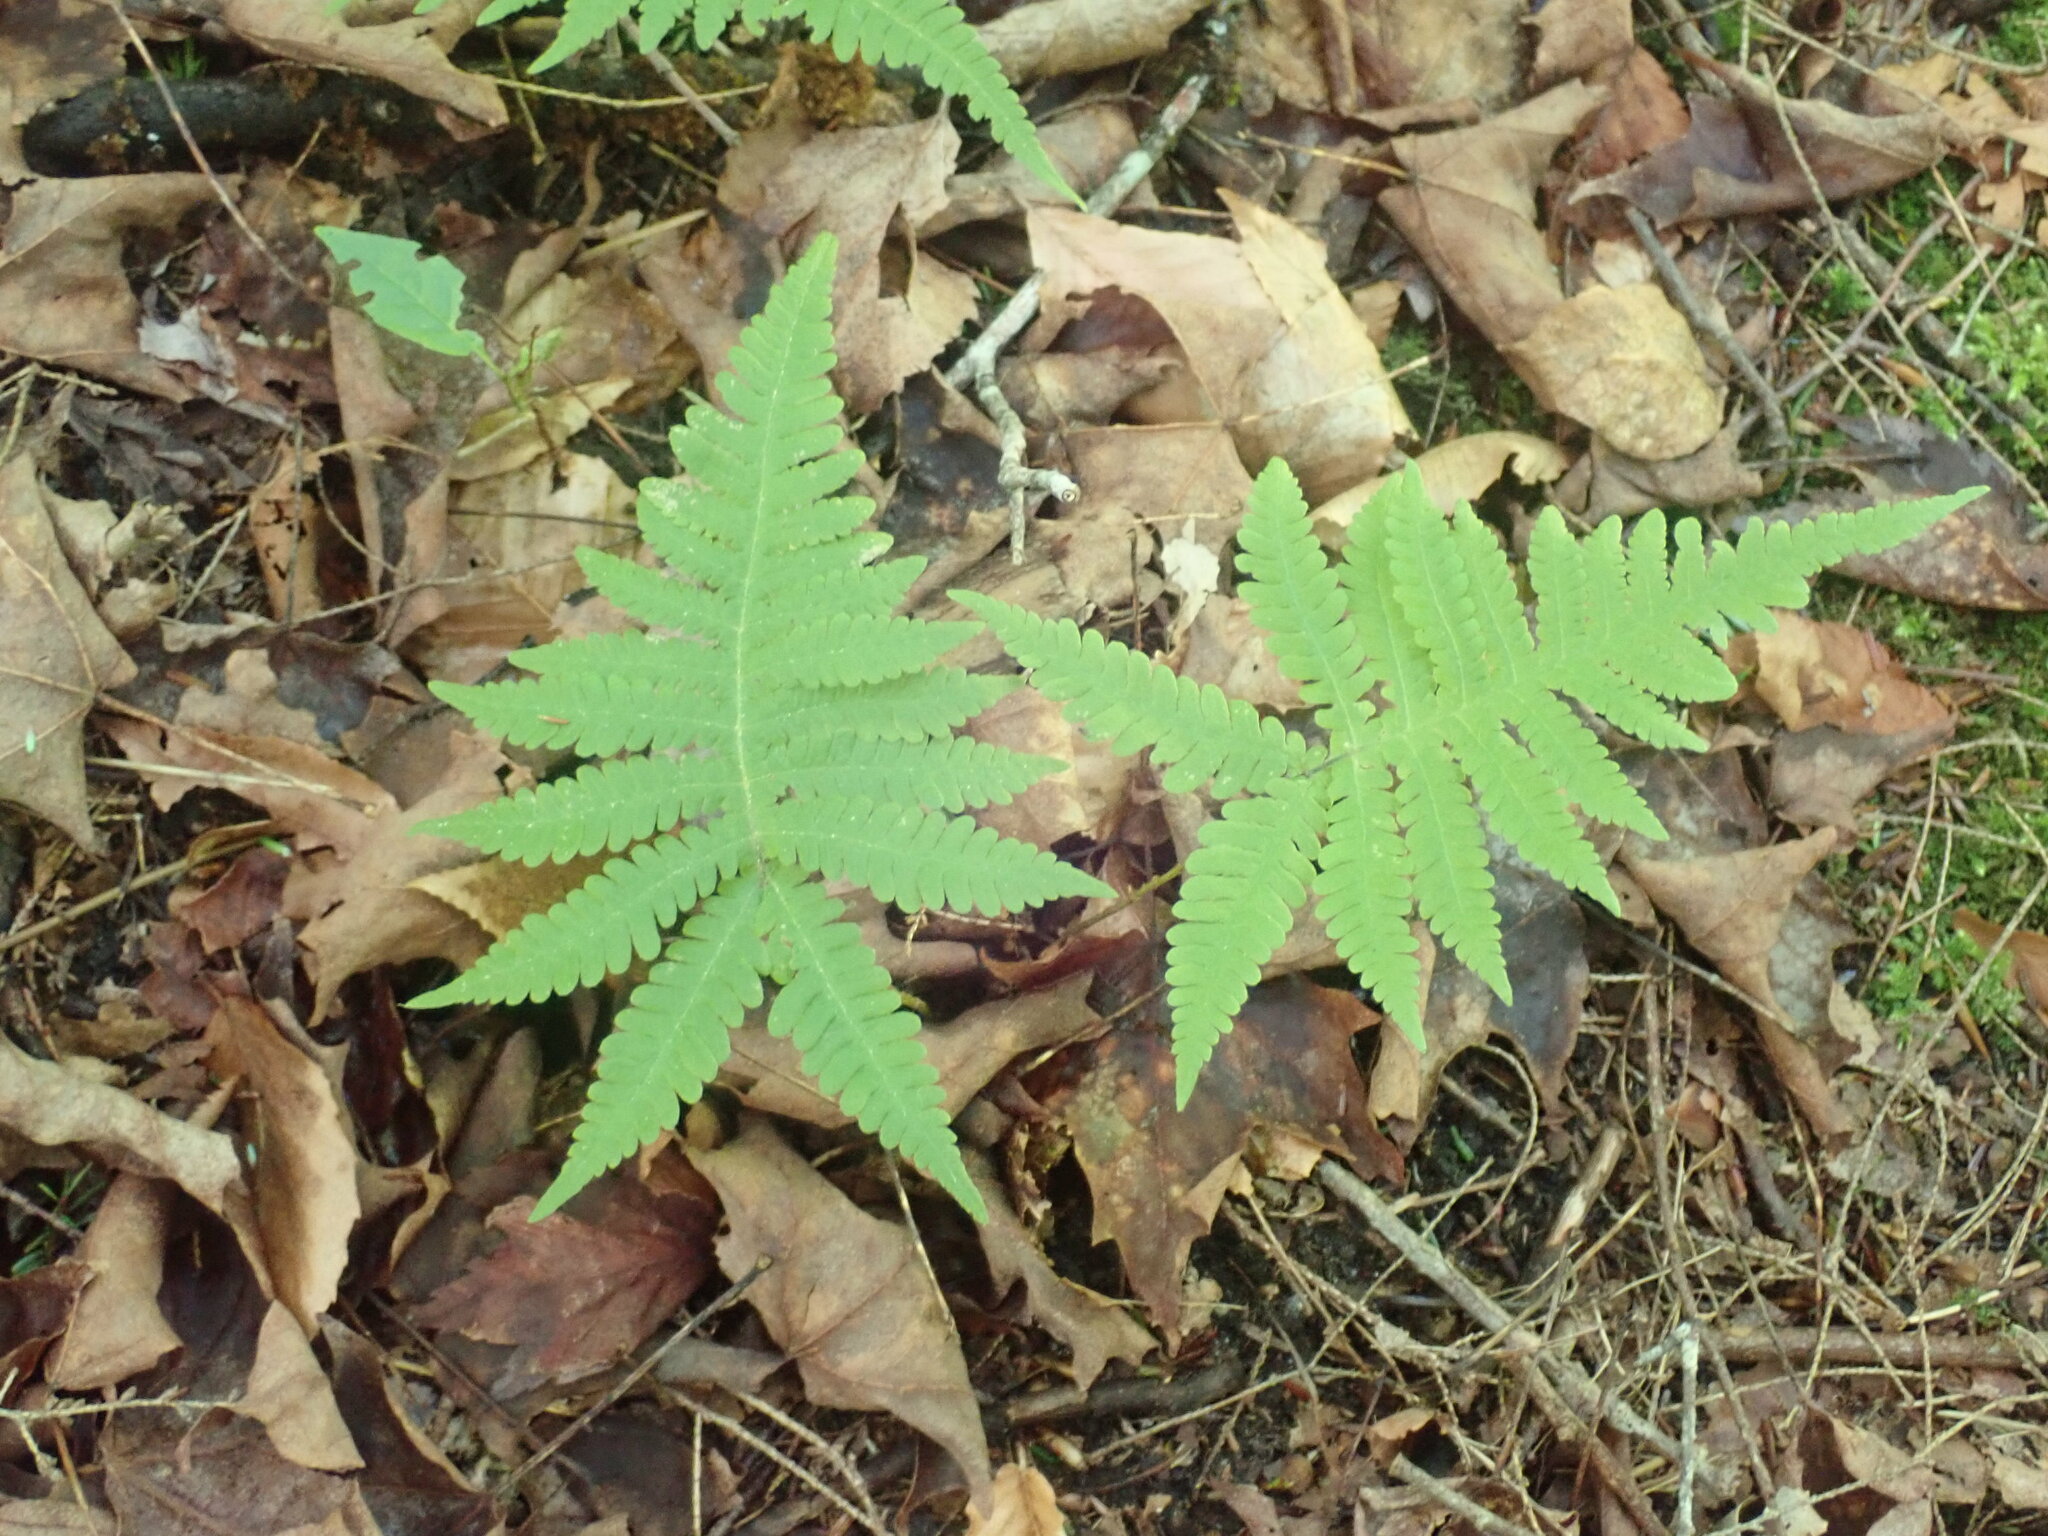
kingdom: Plantae
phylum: Tracheophyta
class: Polypodiopsida
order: Polypodiales
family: Thelypteridaceae
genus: Phegopteris
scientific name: Phegopteris connectilis
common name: Beech fern
